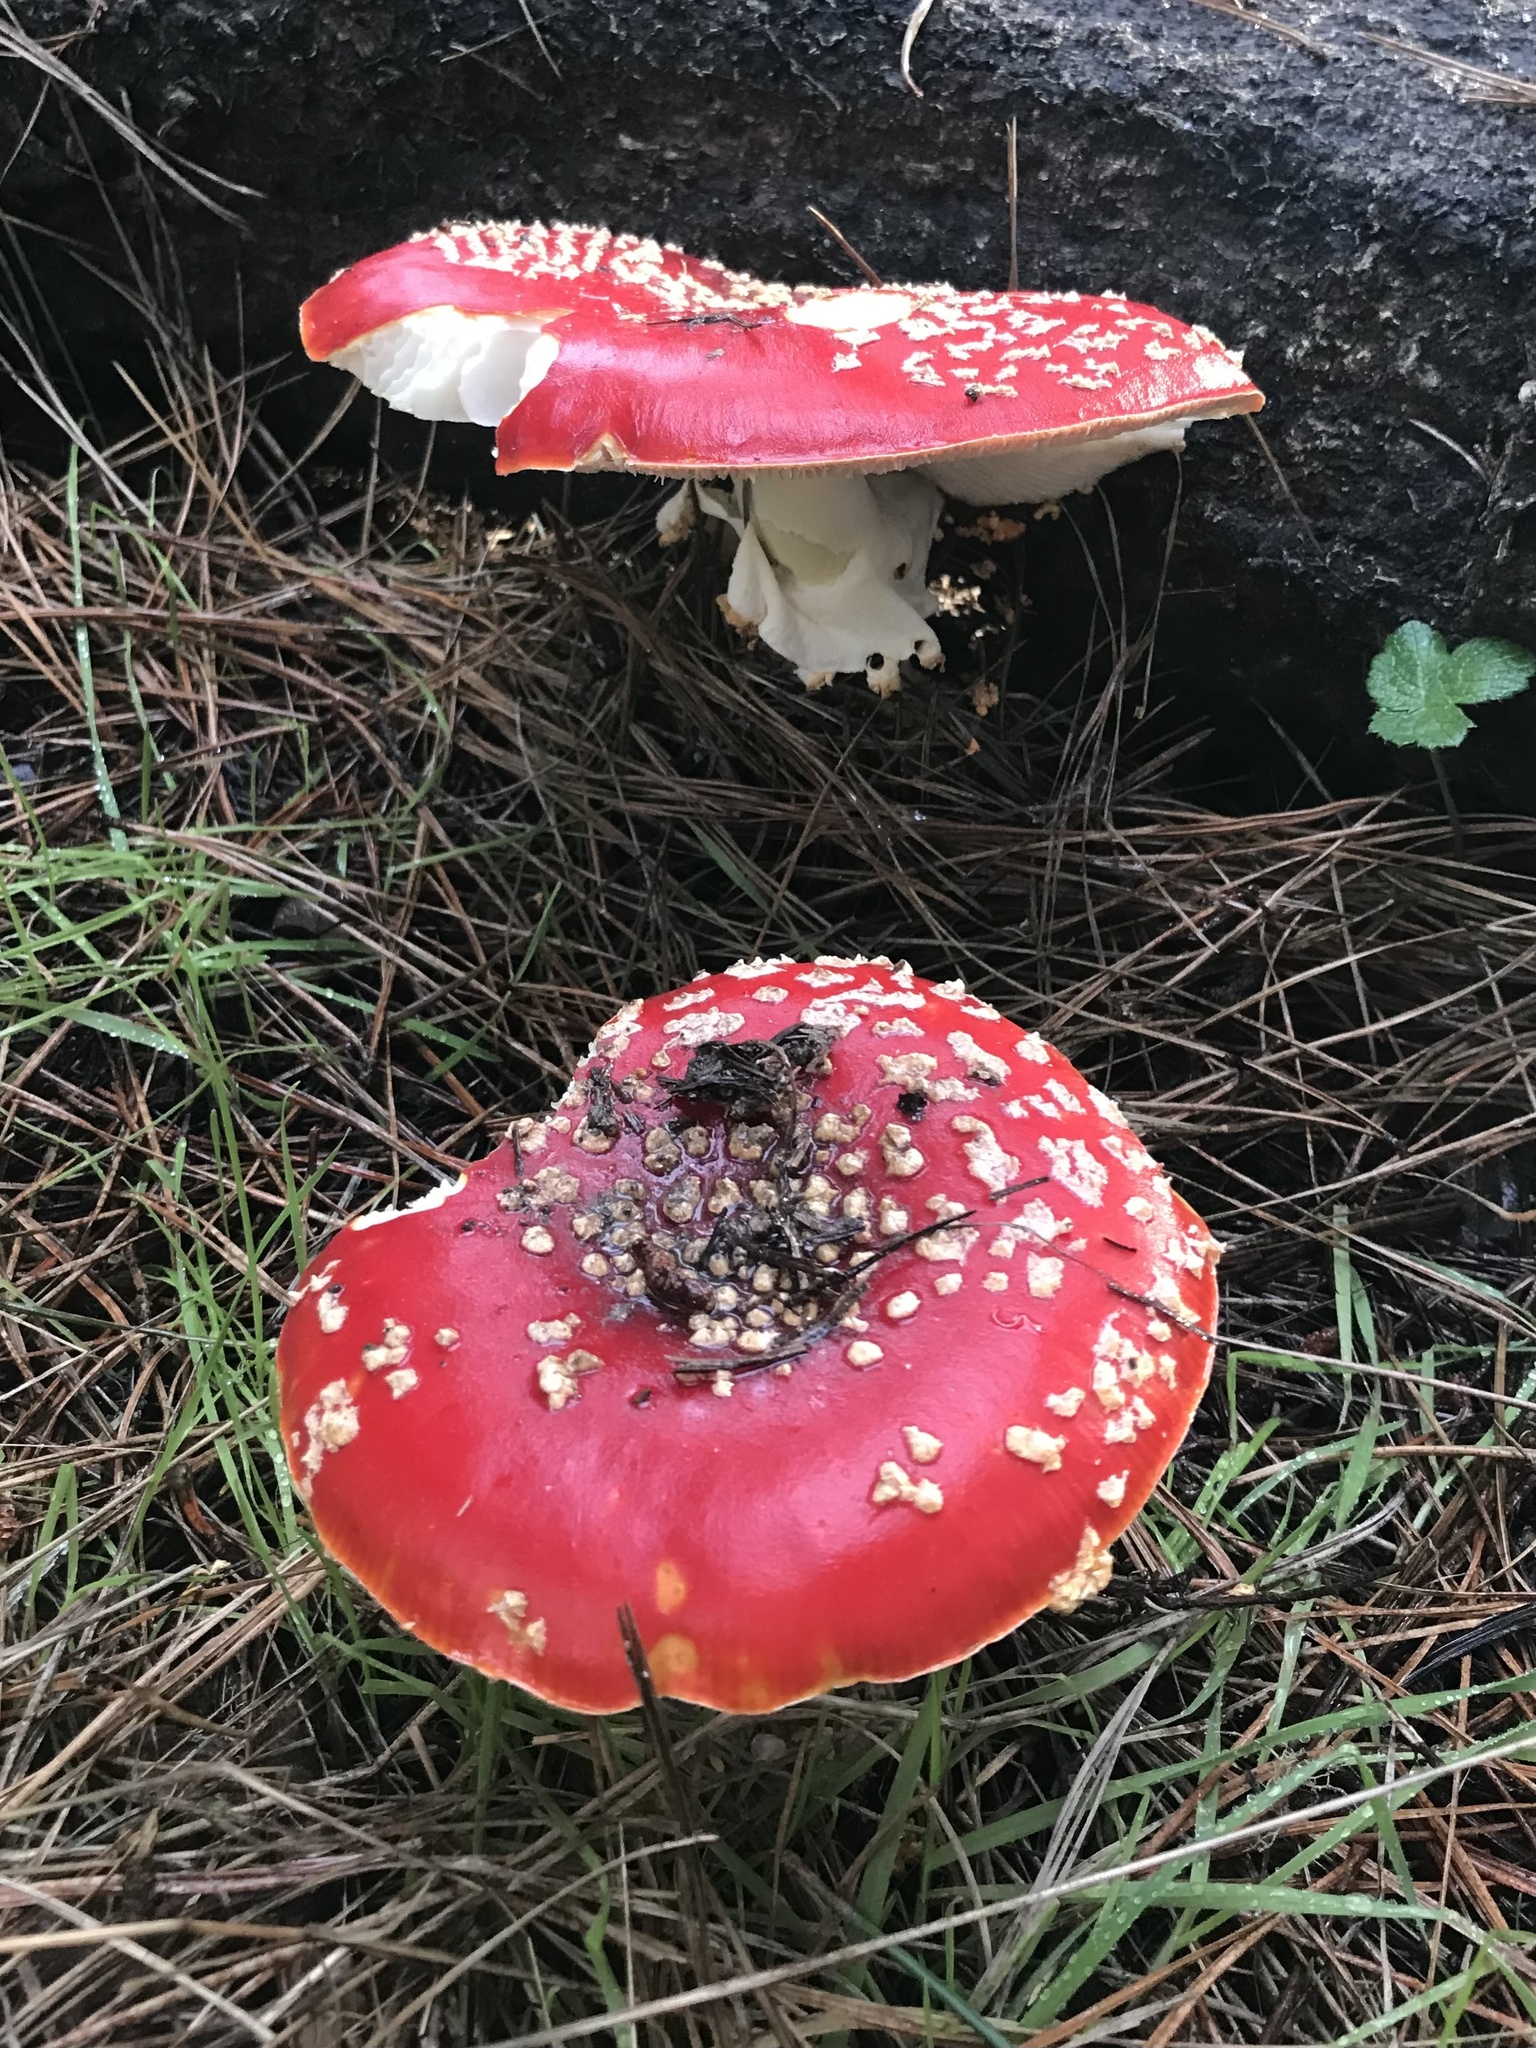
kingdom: Fungi
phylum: Basidiomycota
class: Agaricomycetes
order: Agaricales
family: Amanitaceae
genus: Amanita
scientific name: Amanita muscaria
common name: Fly agaric
